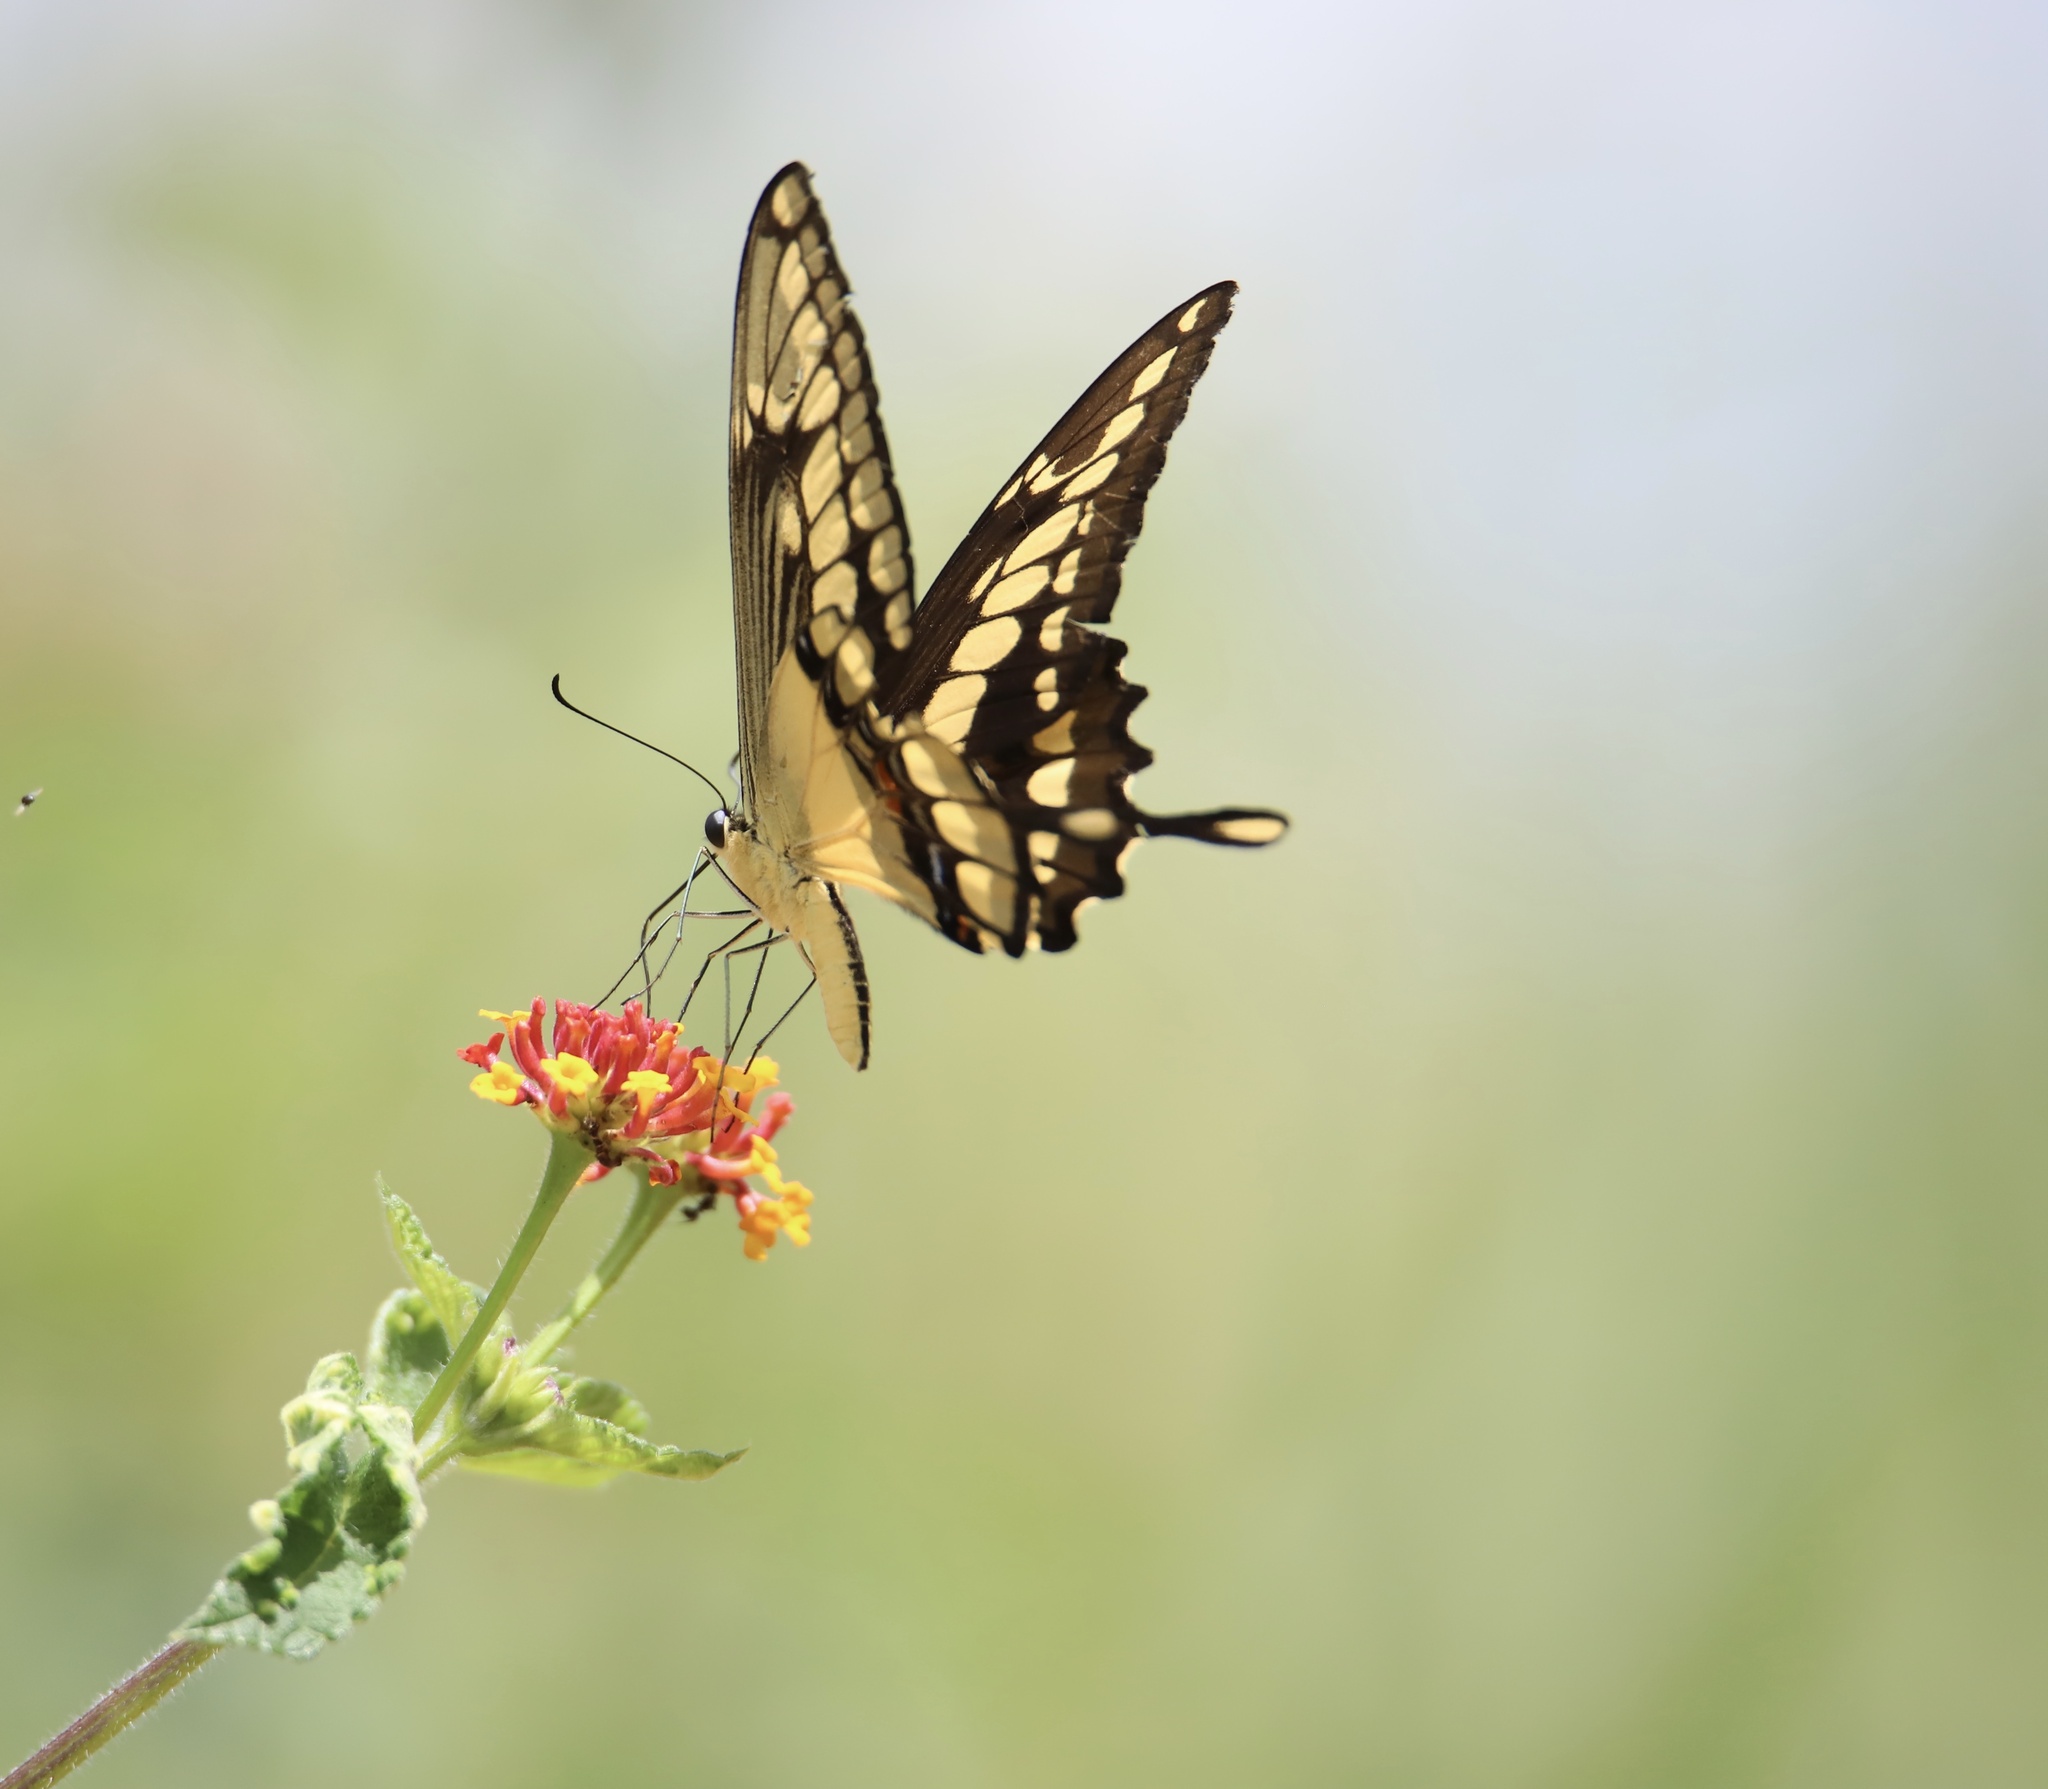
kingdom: Animalia
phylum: Arthropoda
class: Insecta
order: Lepidoptera
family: Papilionidae
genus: Papilio
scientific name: Papilio thoas
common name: King swallowtail
